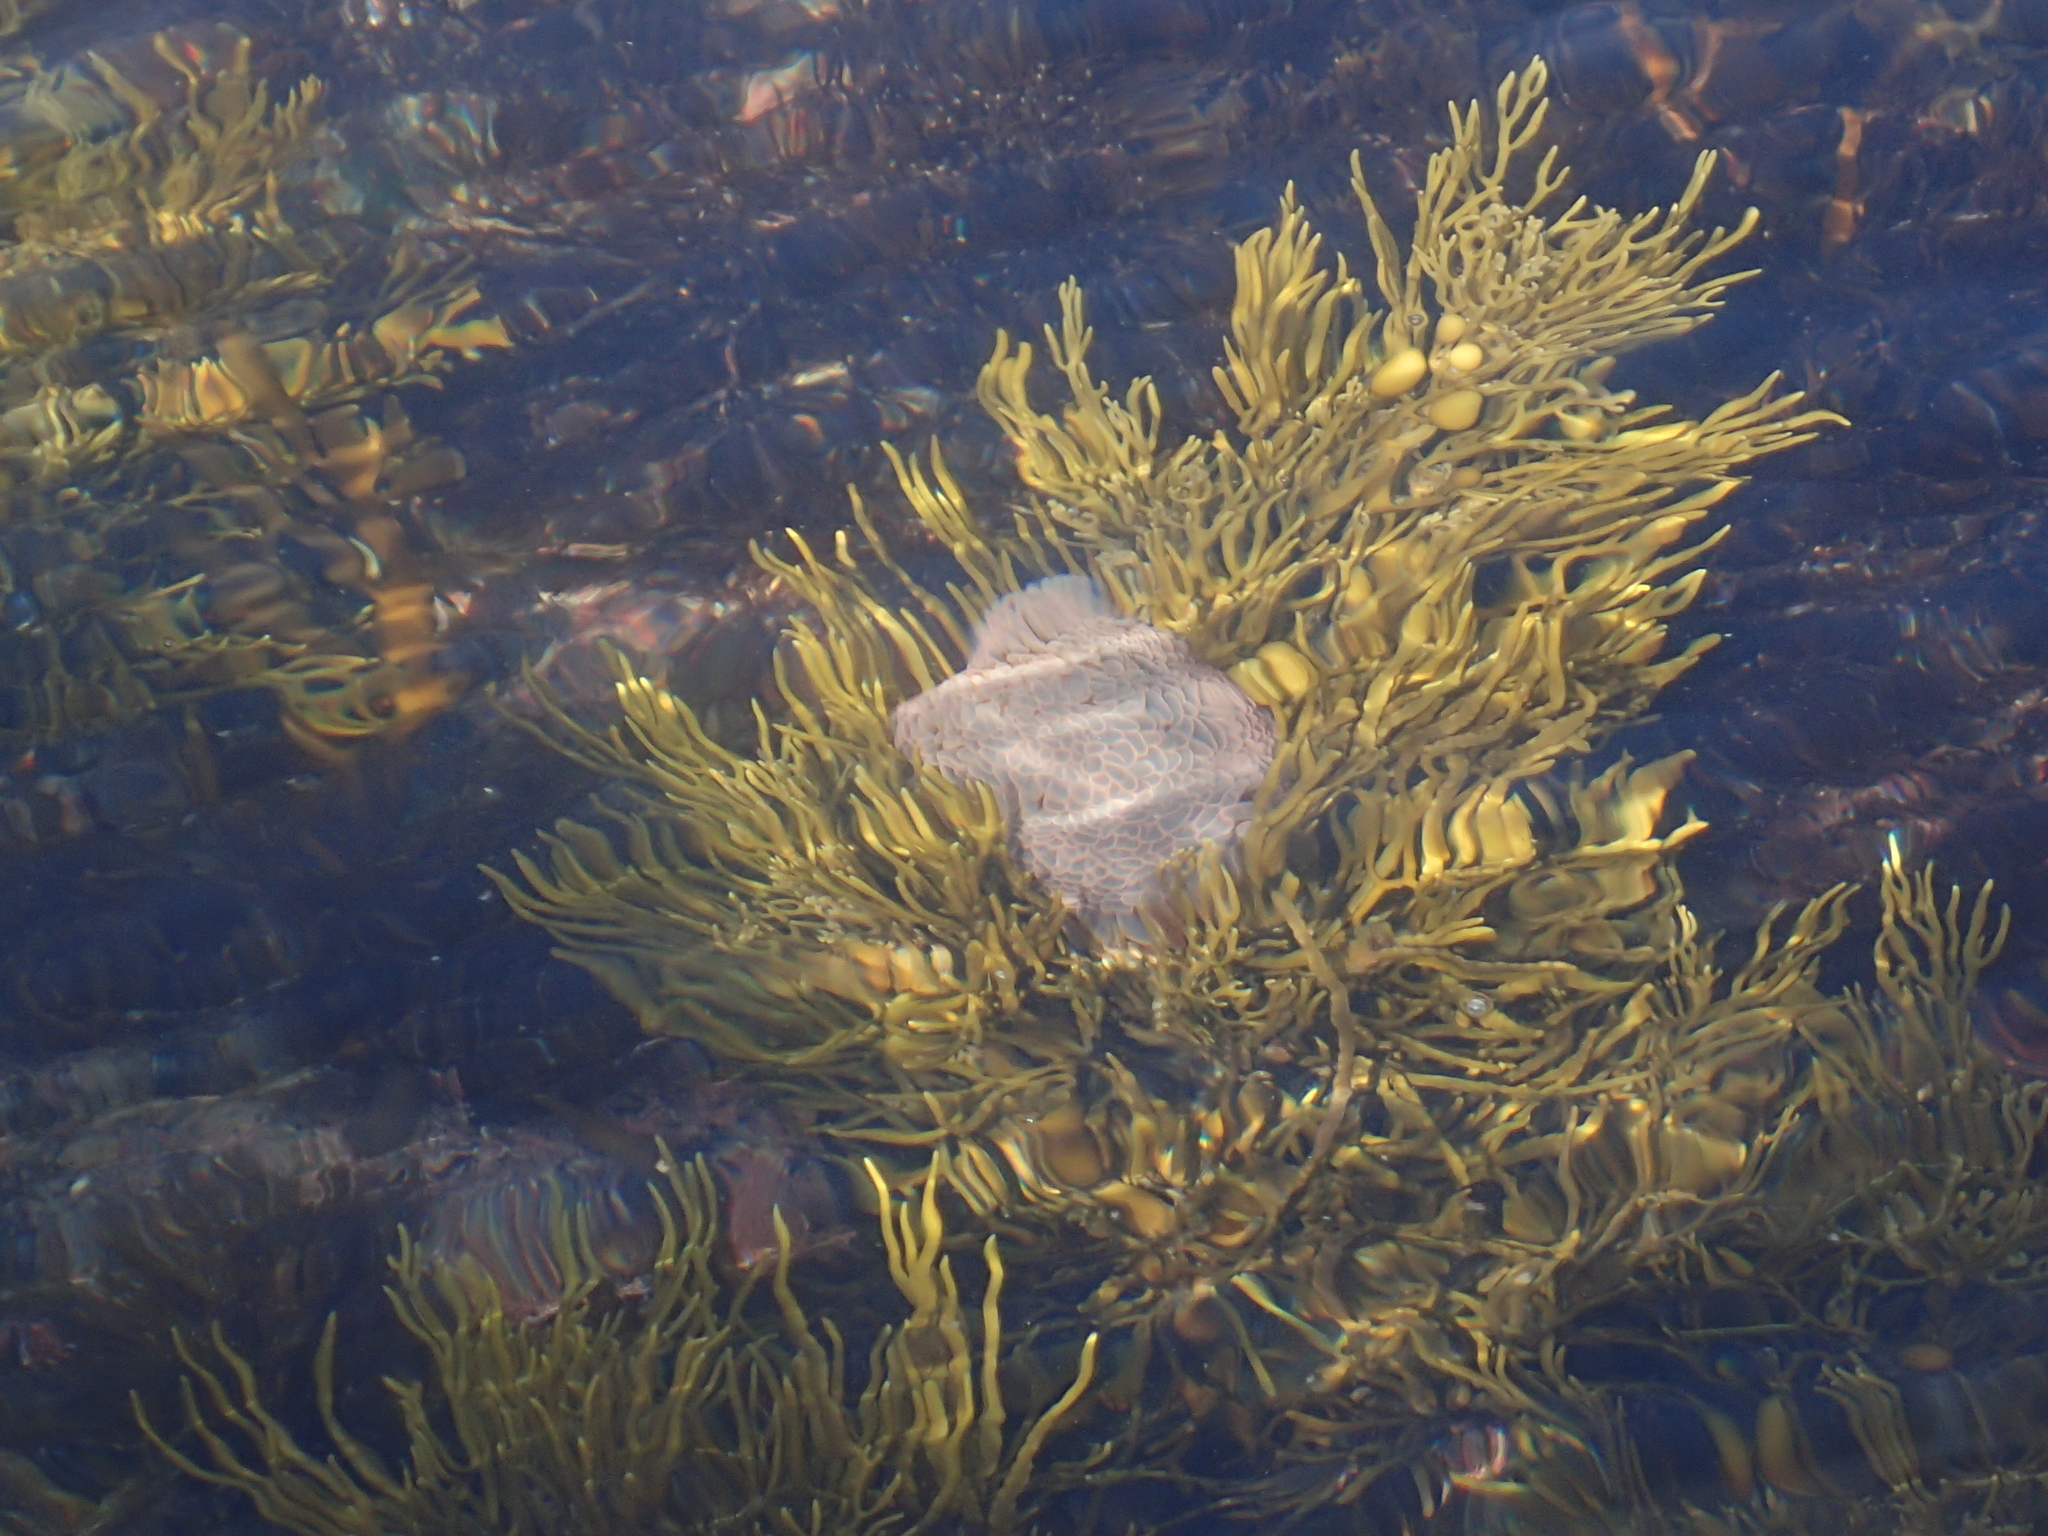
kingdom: Animalia
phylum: Cnidaria
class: Anthozoa
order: Actiniaria
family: Actiniidae
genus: Phlyctenactis
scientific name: Phlyctenactis tuberculosa
